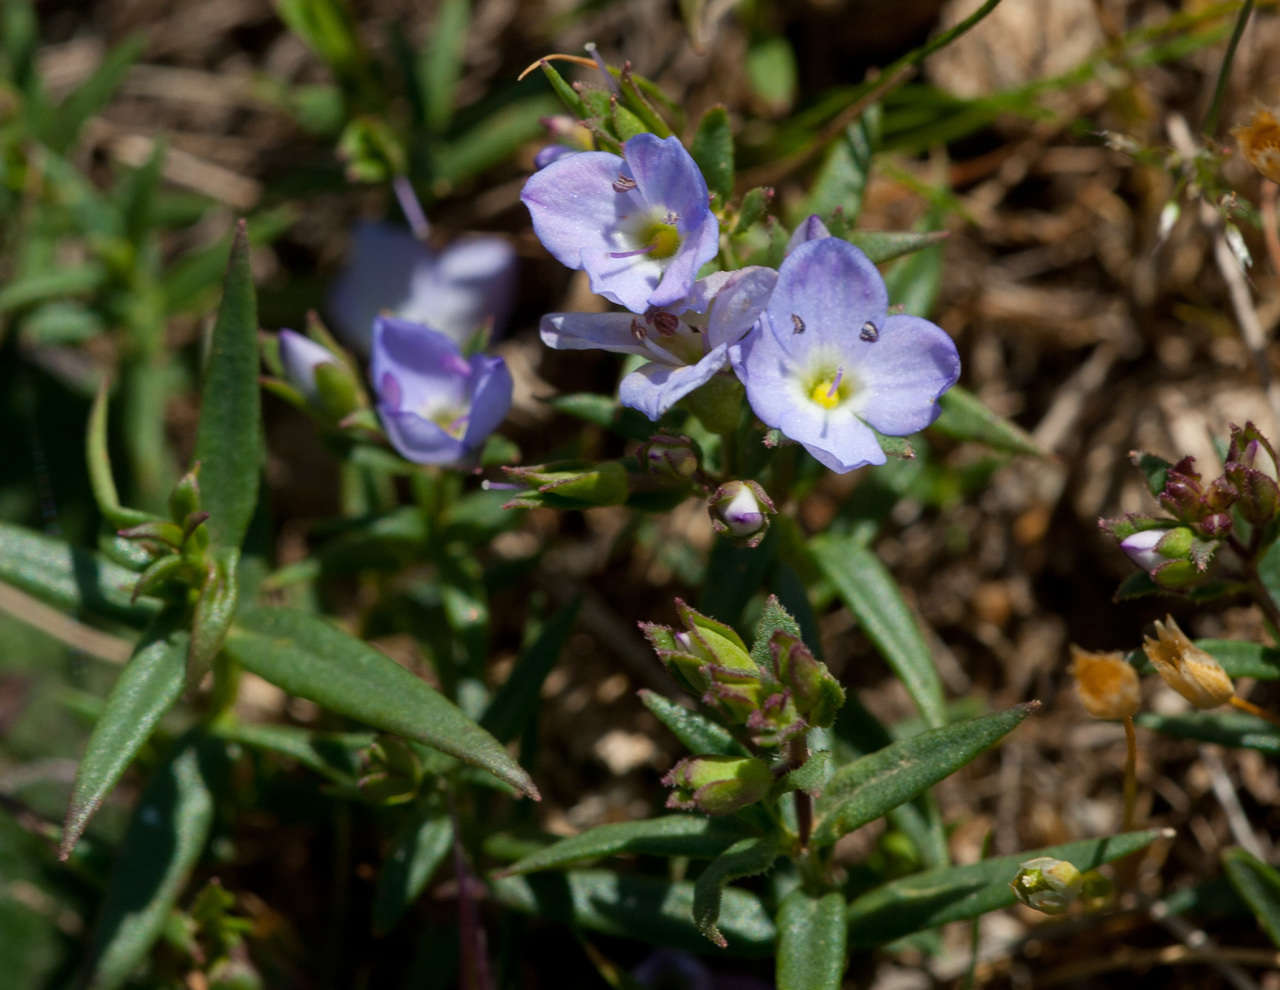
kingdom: Plantae
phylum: Tracheophyta
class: Magnoliopsida
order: Lamiales
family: Plantaginaceae
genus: Veronica
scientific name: Veronica gracilis
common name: Slender speedwell
